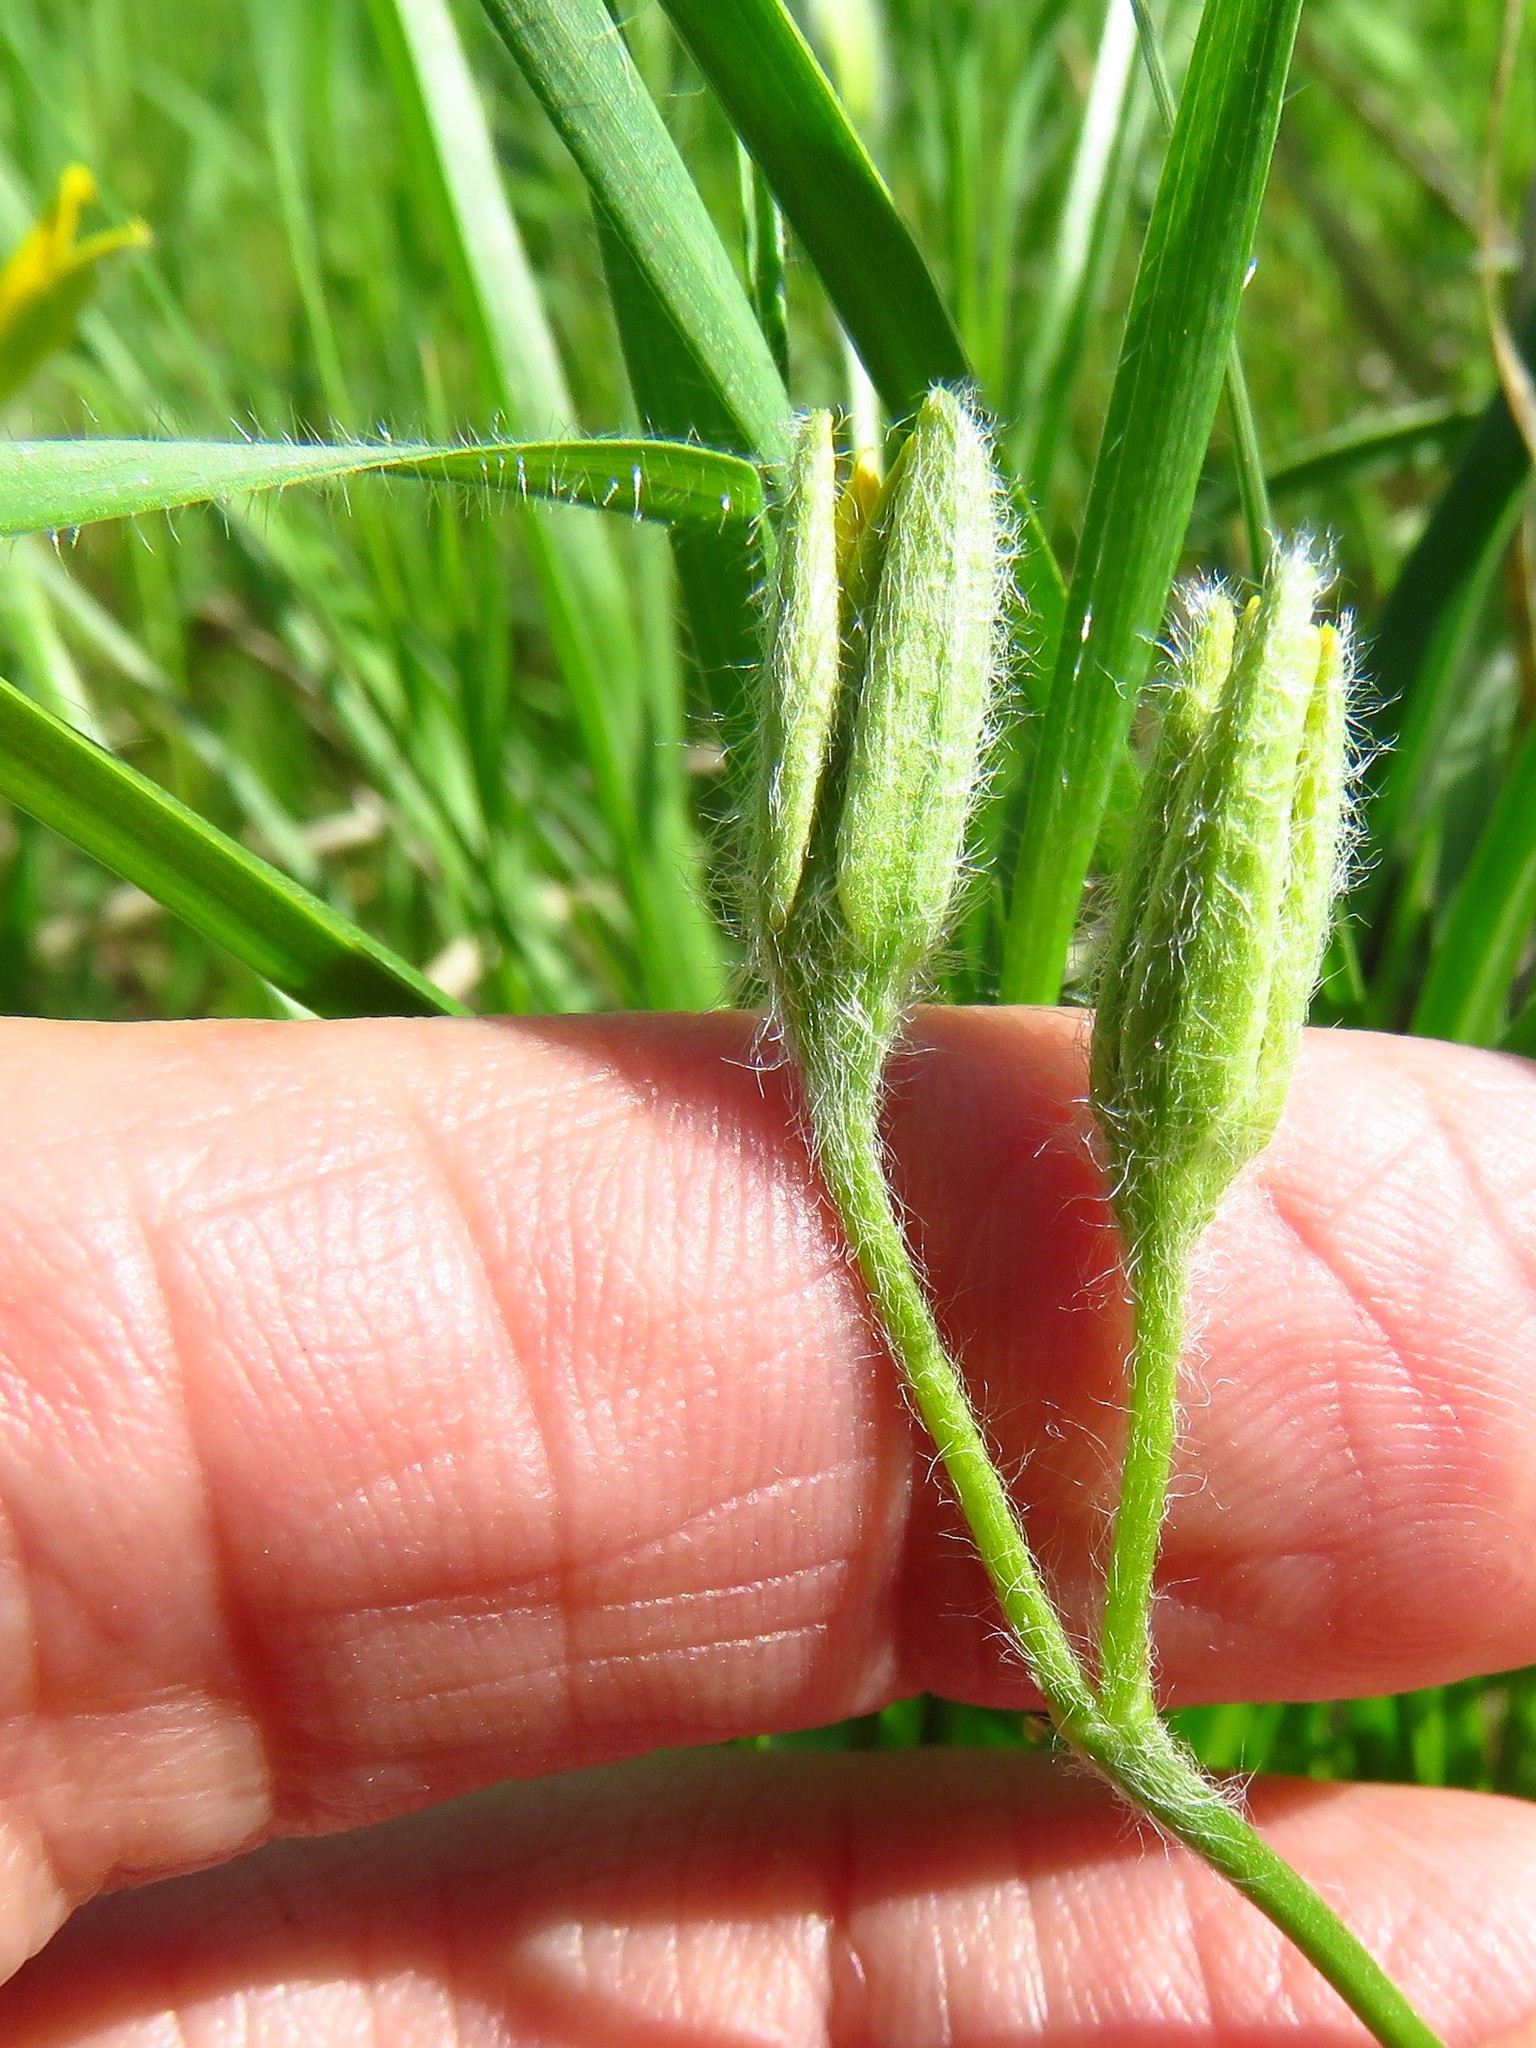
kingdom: Plantae
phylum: Tracheophyta
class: Liliopsida
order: Asparagales
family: Hypoxidaceae
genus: Hypoxis
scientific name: Hypoxis hirsuta
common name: Common goldstar
